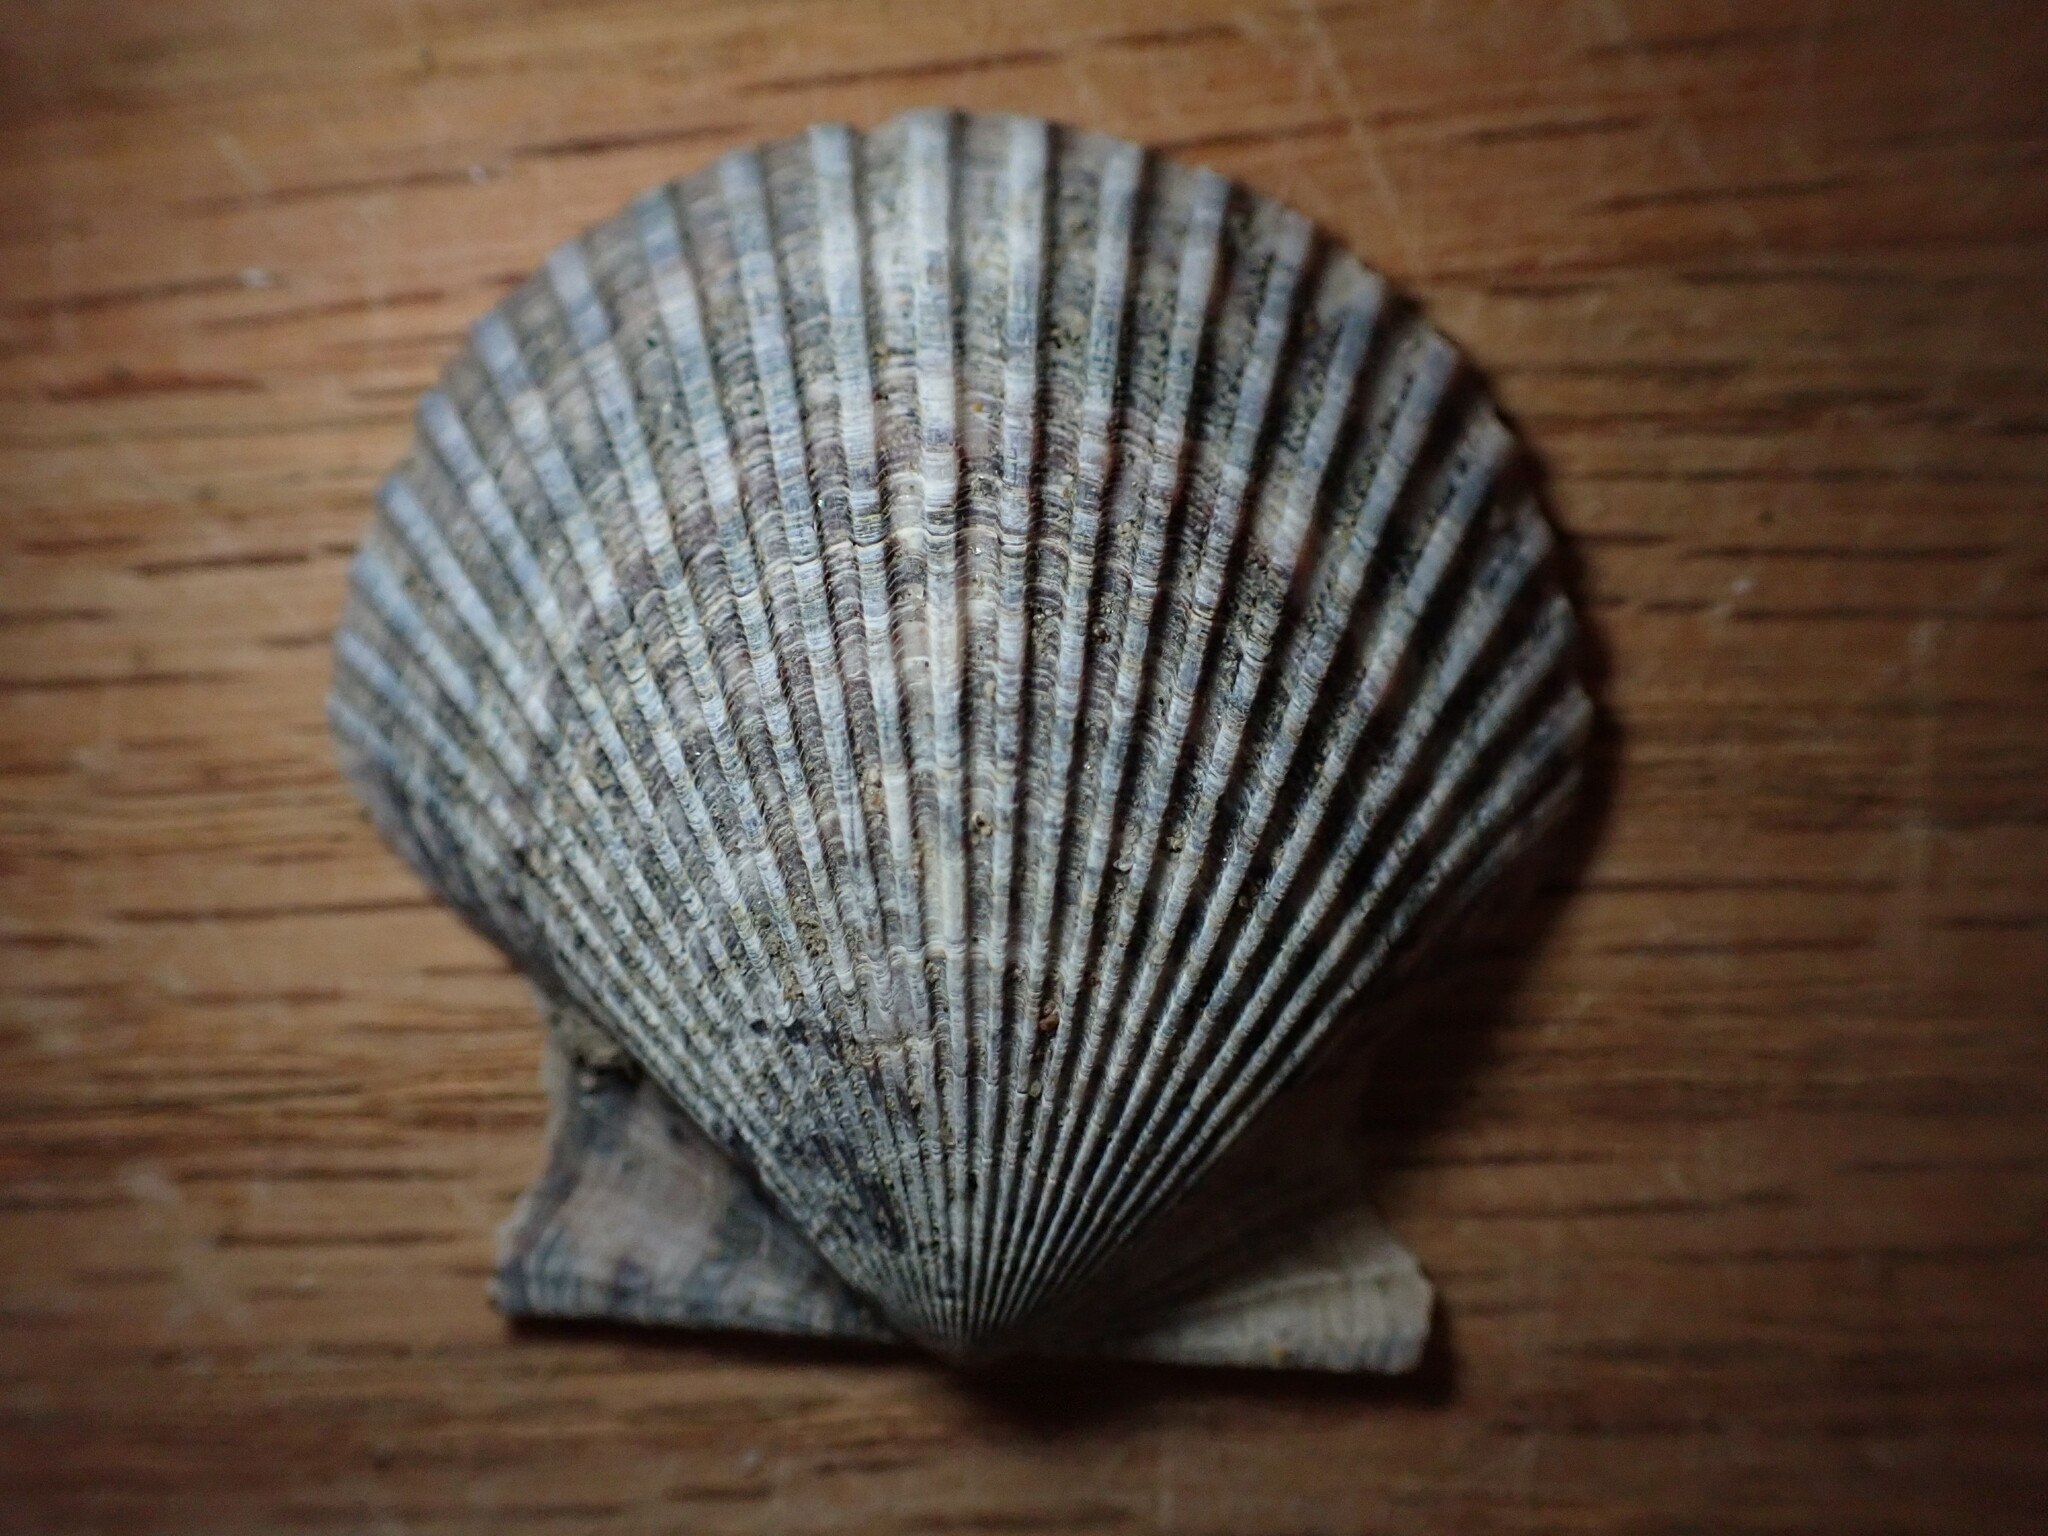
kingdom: Animalia
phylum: Mollusca
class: Bivalvia
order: Pectinida
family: Pectinidae
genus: Argopecten
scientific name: Argopecten ventricosus
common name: Catarina scallop
